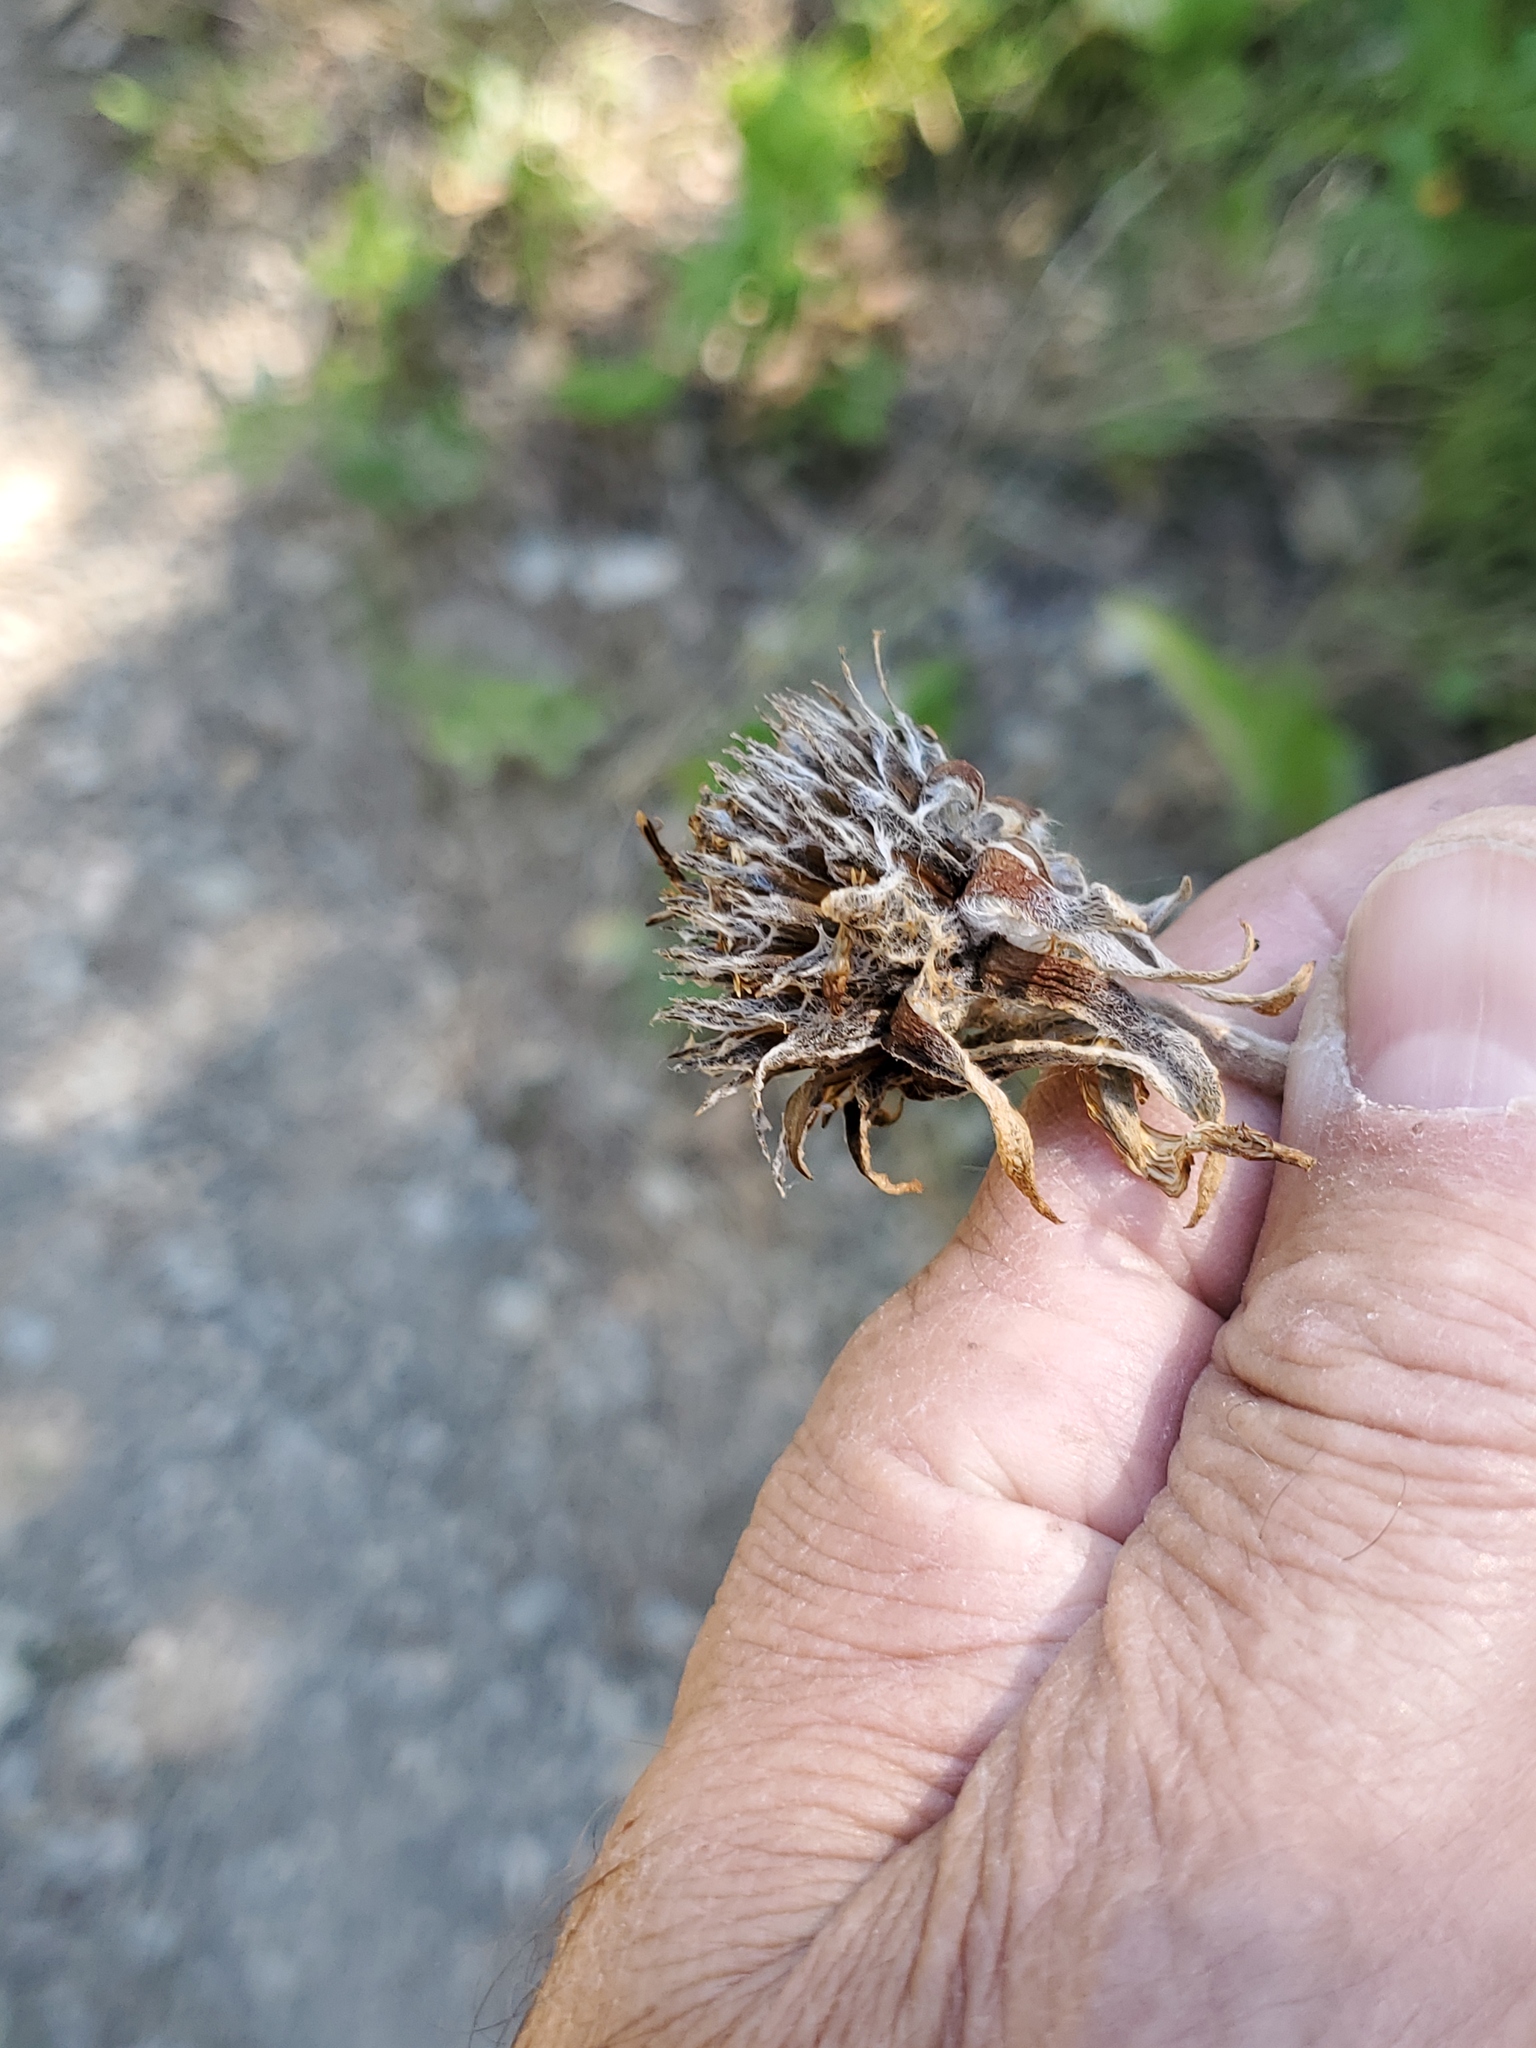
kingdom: Plantae
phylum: Tracheophyta
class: Magnoliopsida
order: Asterales
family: Asteraceae
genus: Wyethia
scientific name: Wyethia sagittata
